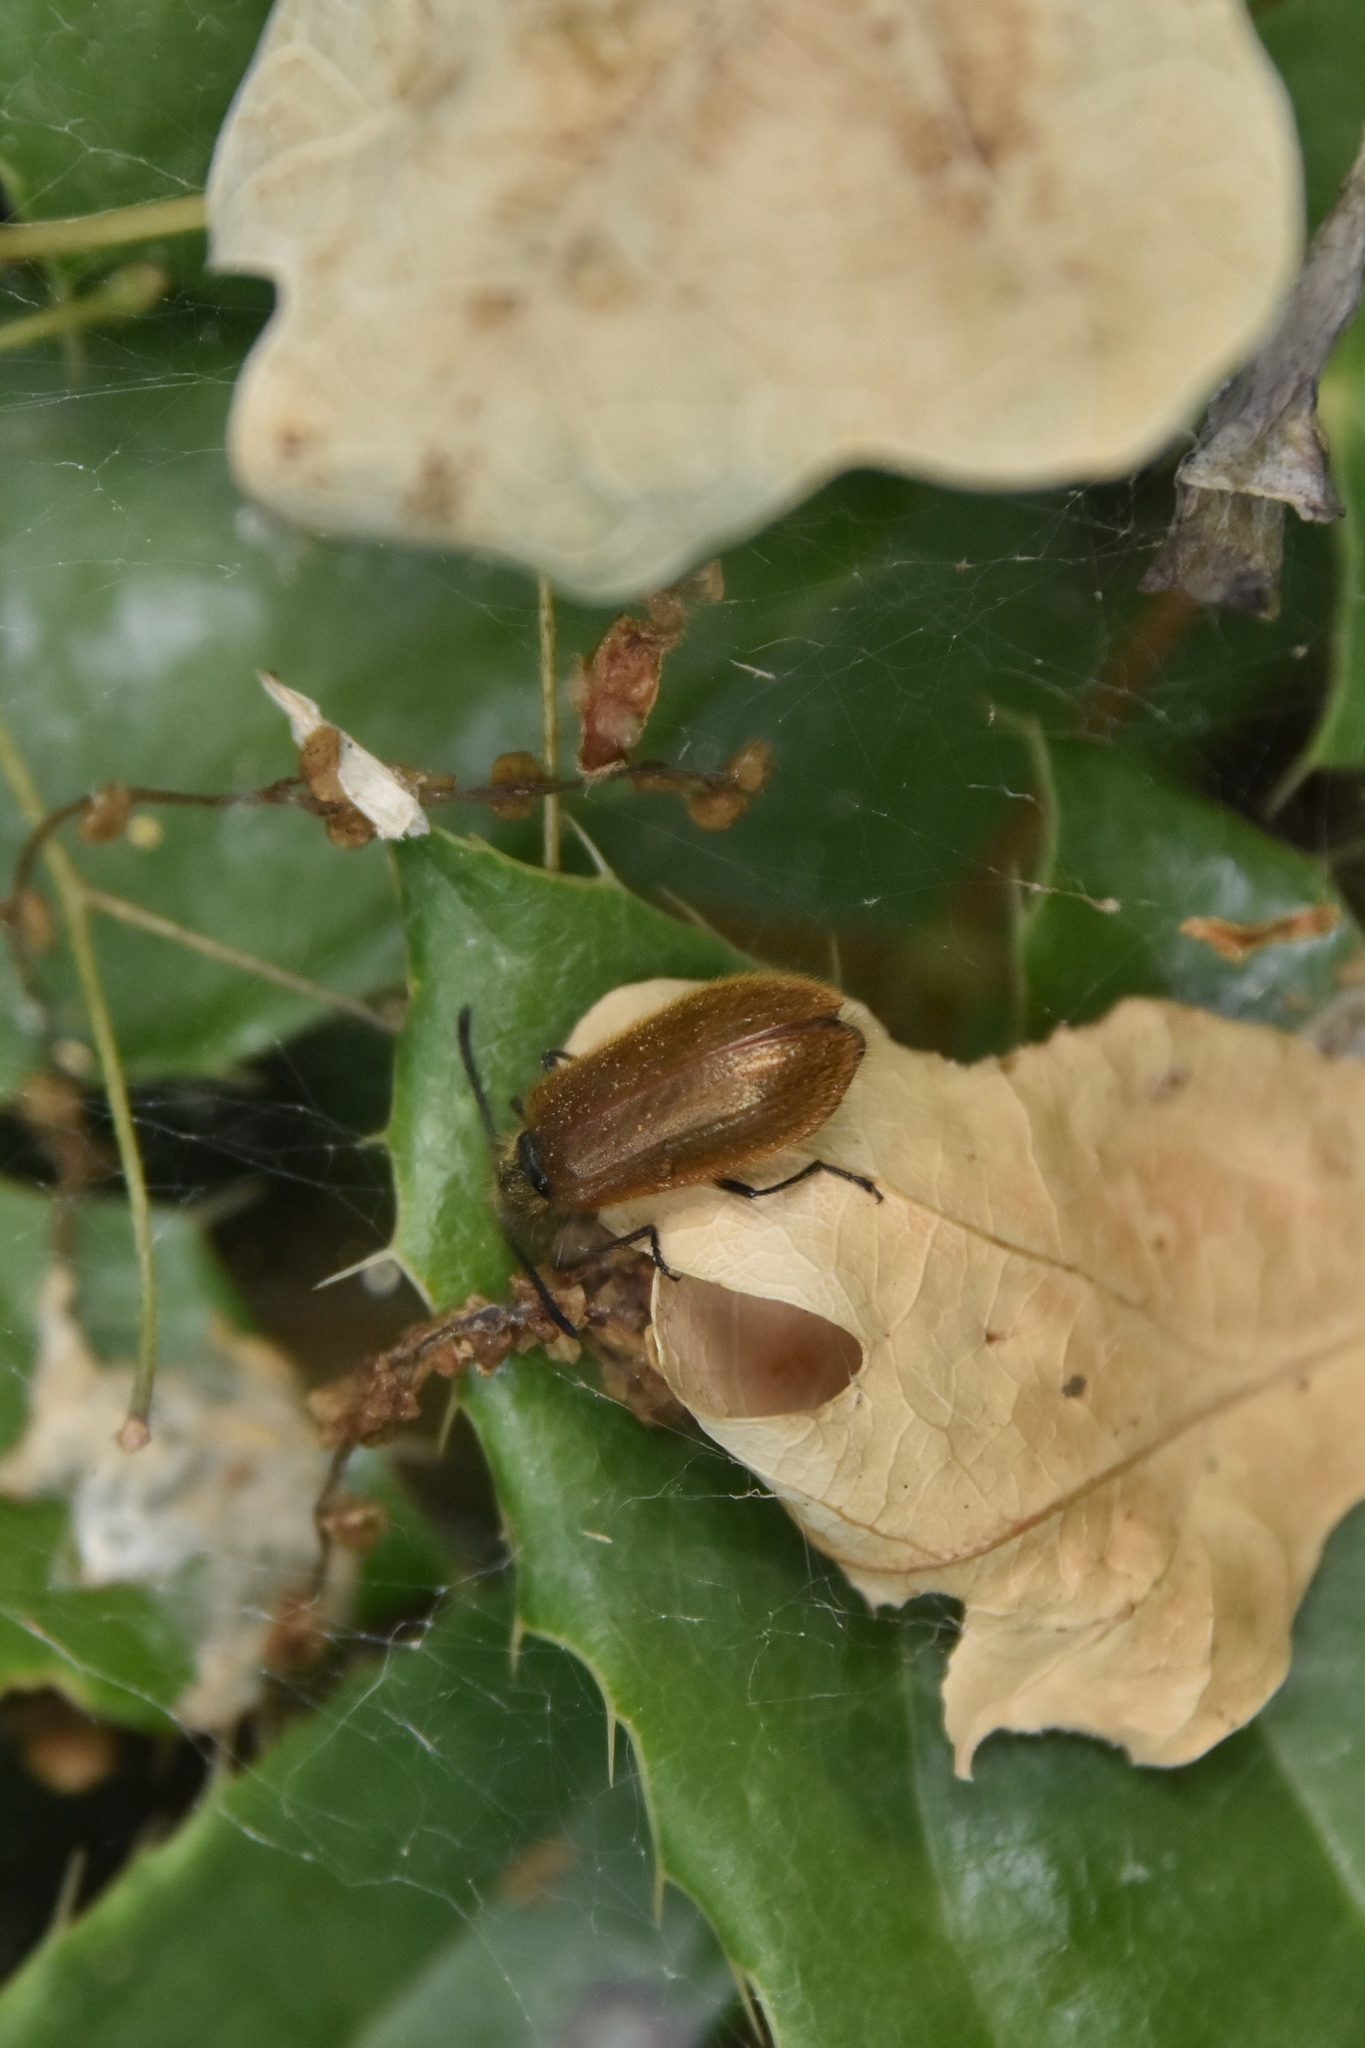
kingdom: Animalia
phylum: Arthropoda
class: Insecta
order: Coleoptera
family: Tenebrionidae
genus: Lagria
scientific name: Lagria hirta
